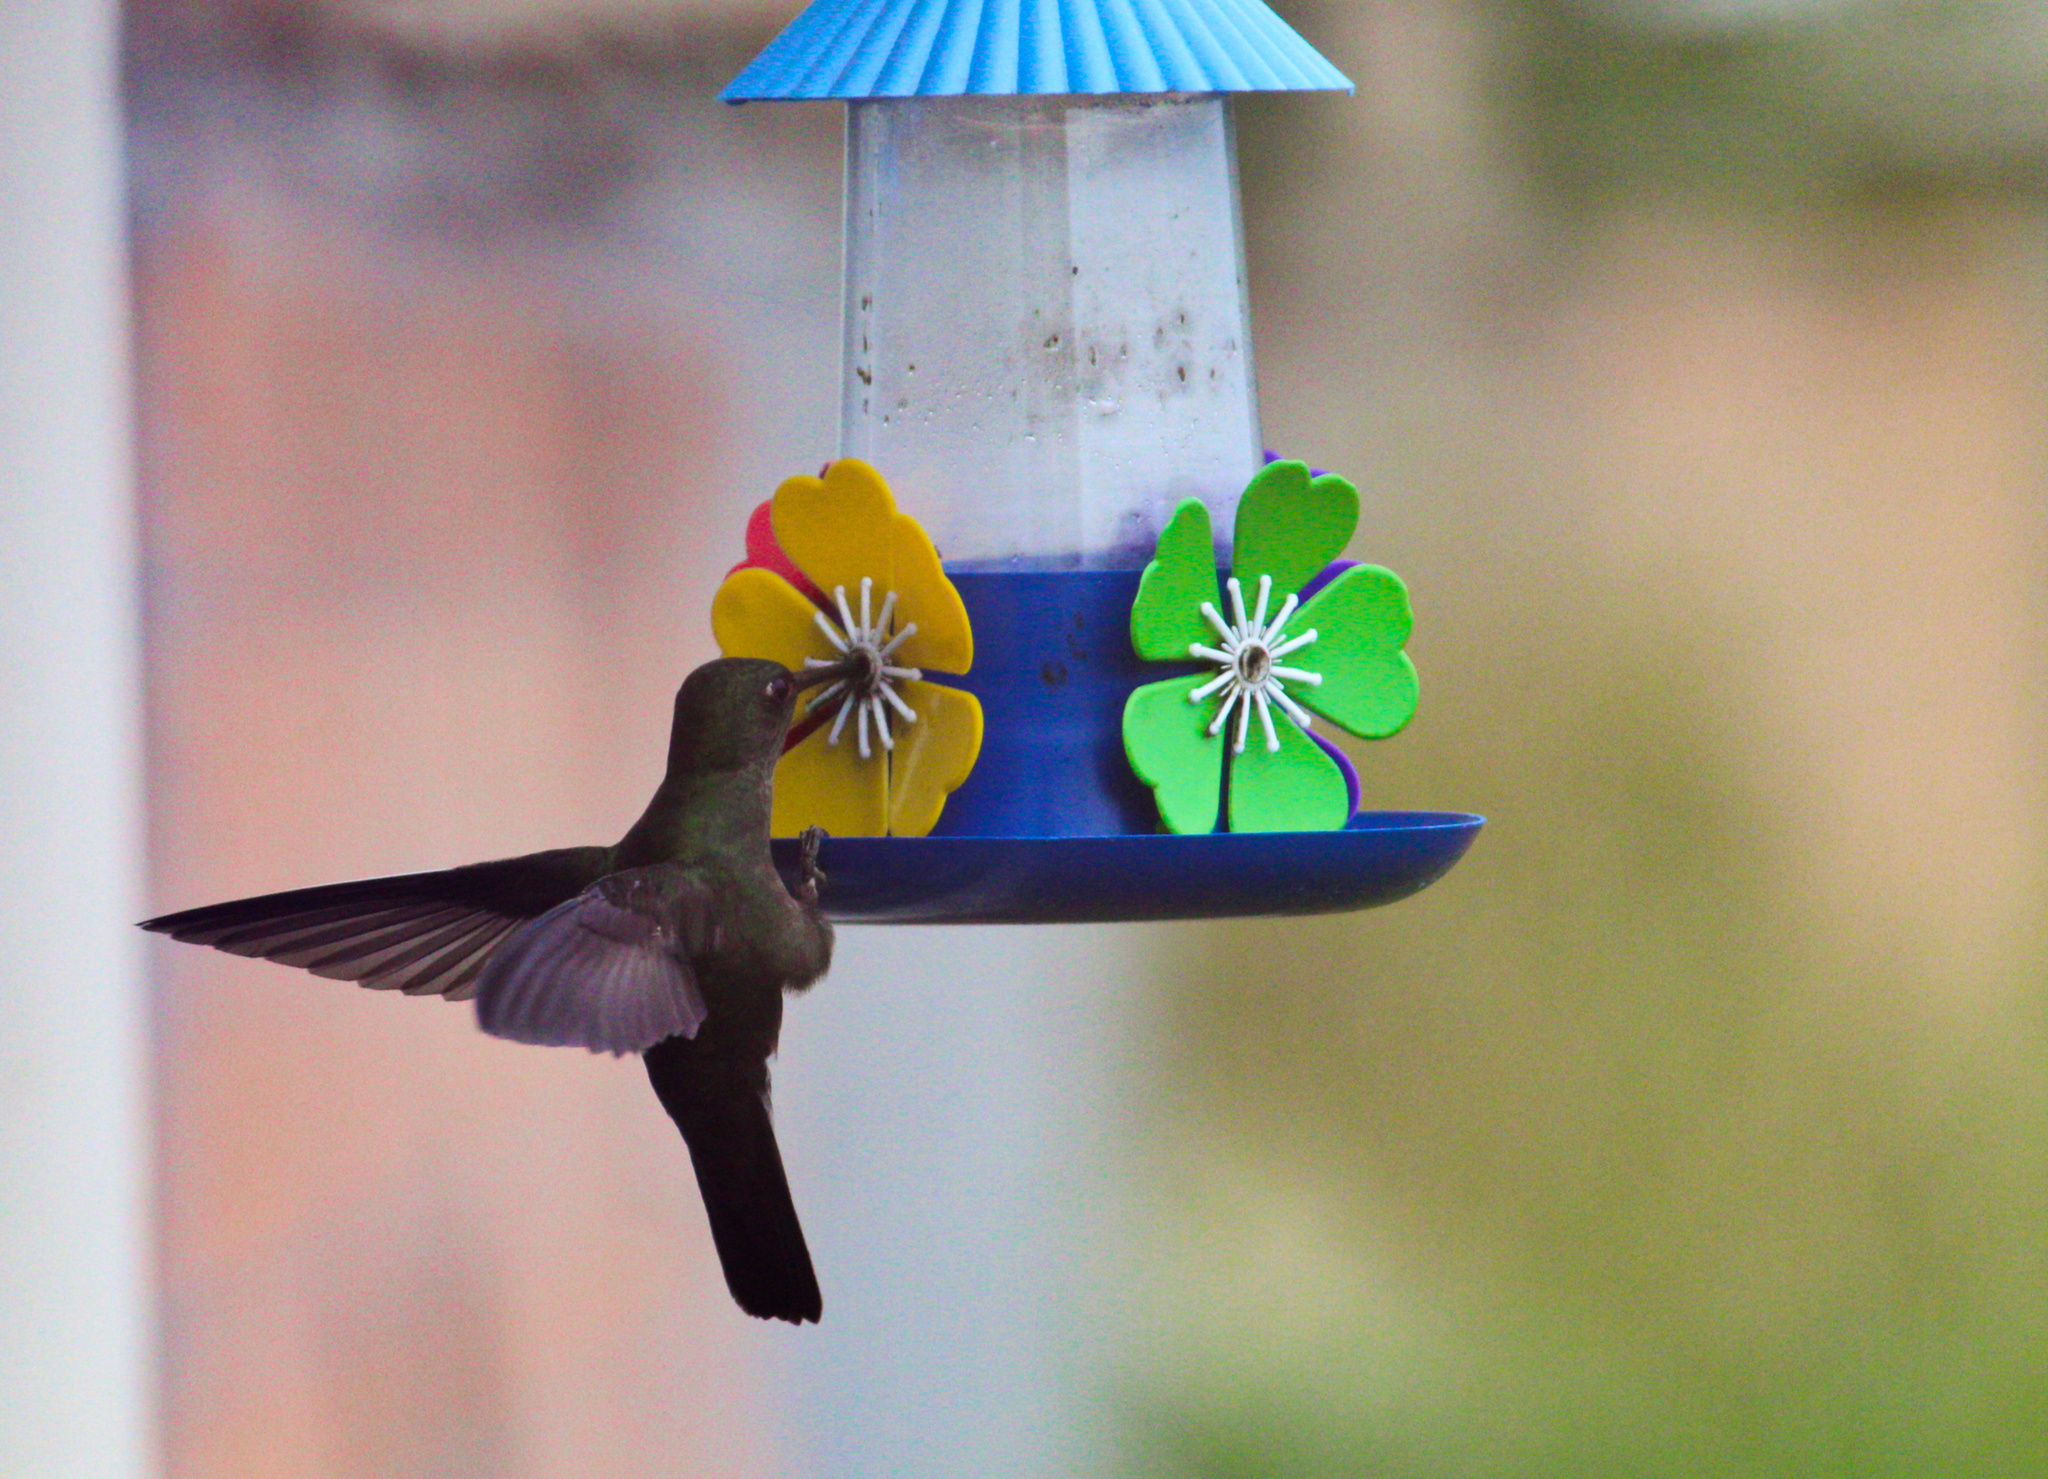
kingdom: Animalia
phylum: Chordata
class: Aves
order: Apodiformes
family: Trochilidae
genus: Eupetomena
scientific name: Eupetomena cirrochloris
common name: Sombre hummingbird
